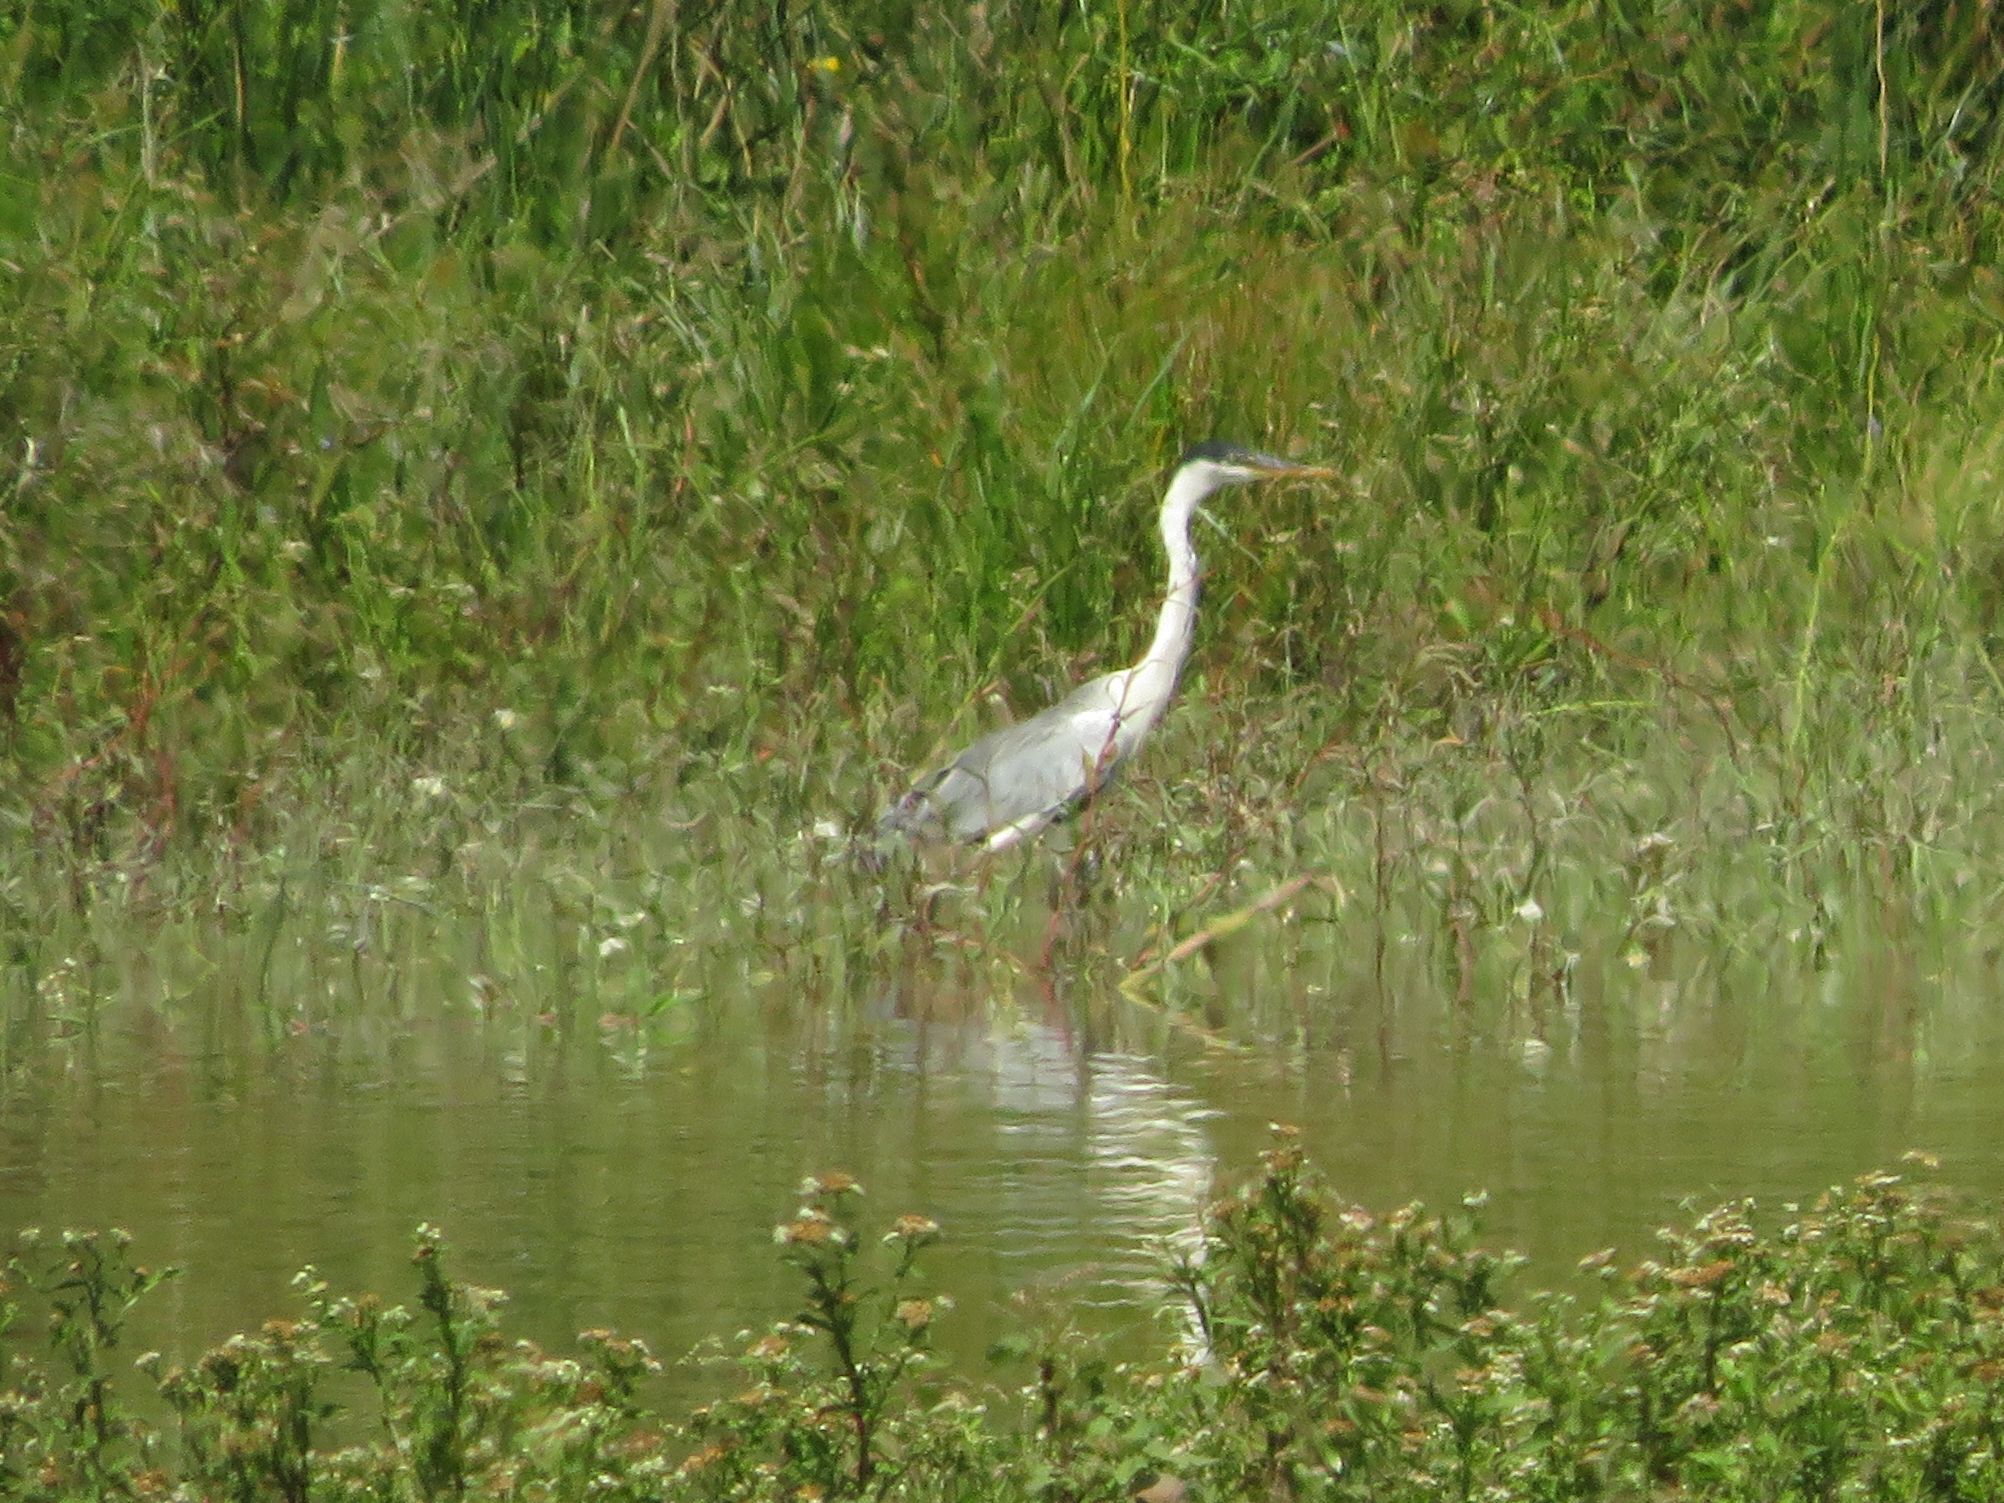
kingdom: Animalia
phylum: Chordata
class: Aves
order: Pelecaniformes
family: Ardeidae
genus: Ardea
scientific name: Ardea cocoi
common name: Cocoi heron
